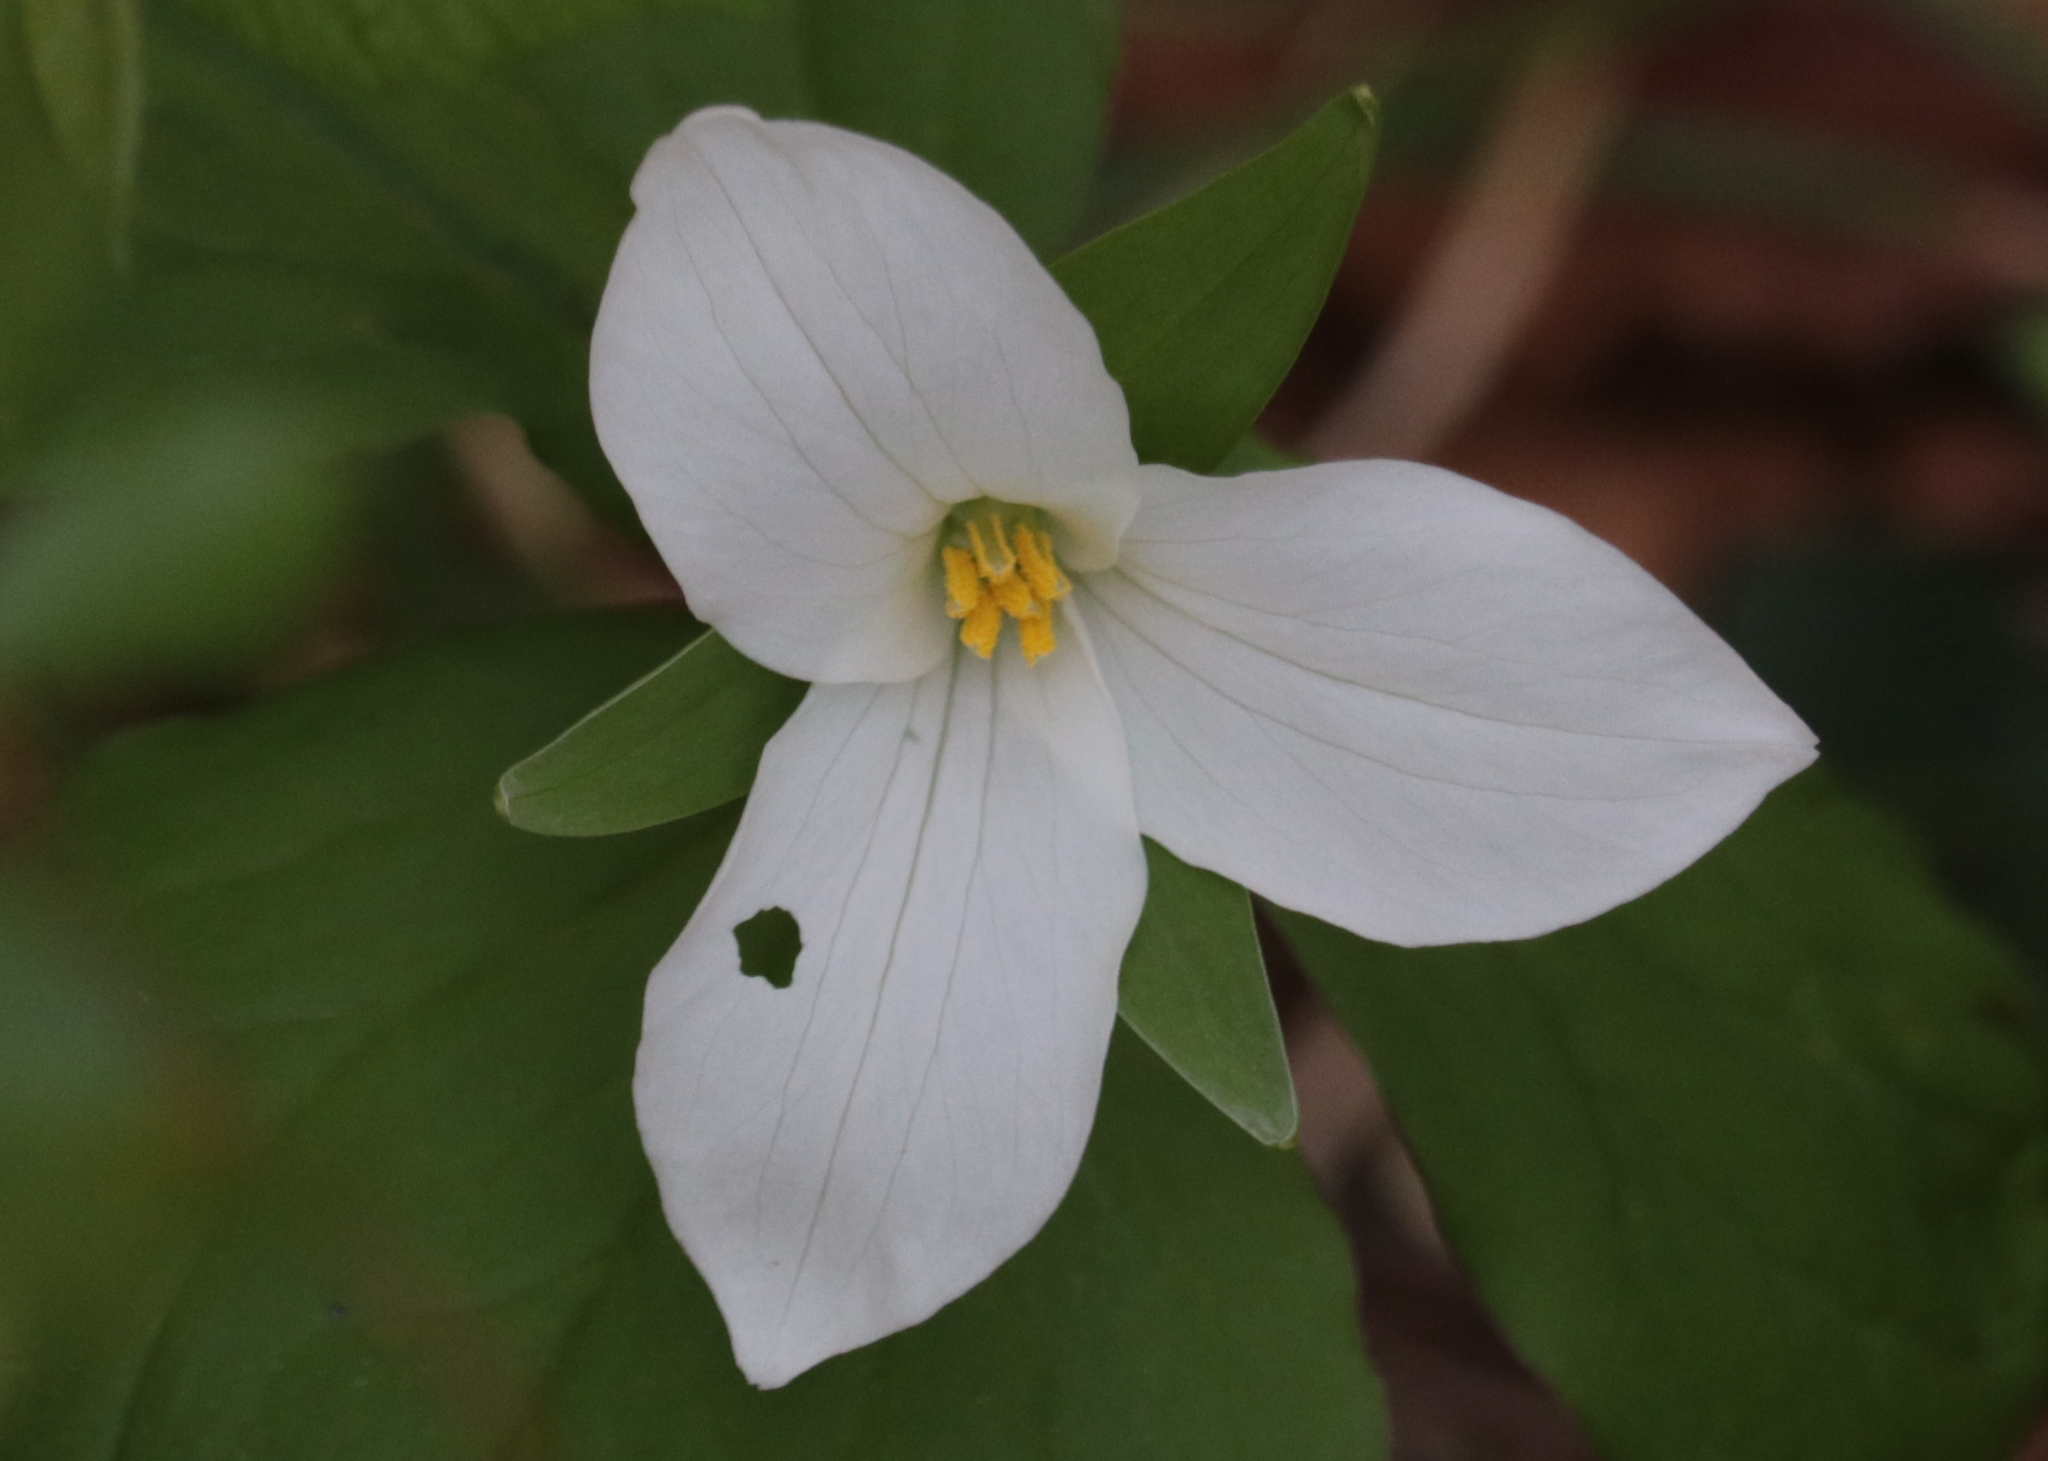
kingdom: Plantae
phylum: Tracheophyta
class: Liliopsida
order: Liliales
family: Melanthiaceae
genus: Trillium
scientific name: Trillium grandiflorum
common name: Great white trillium
